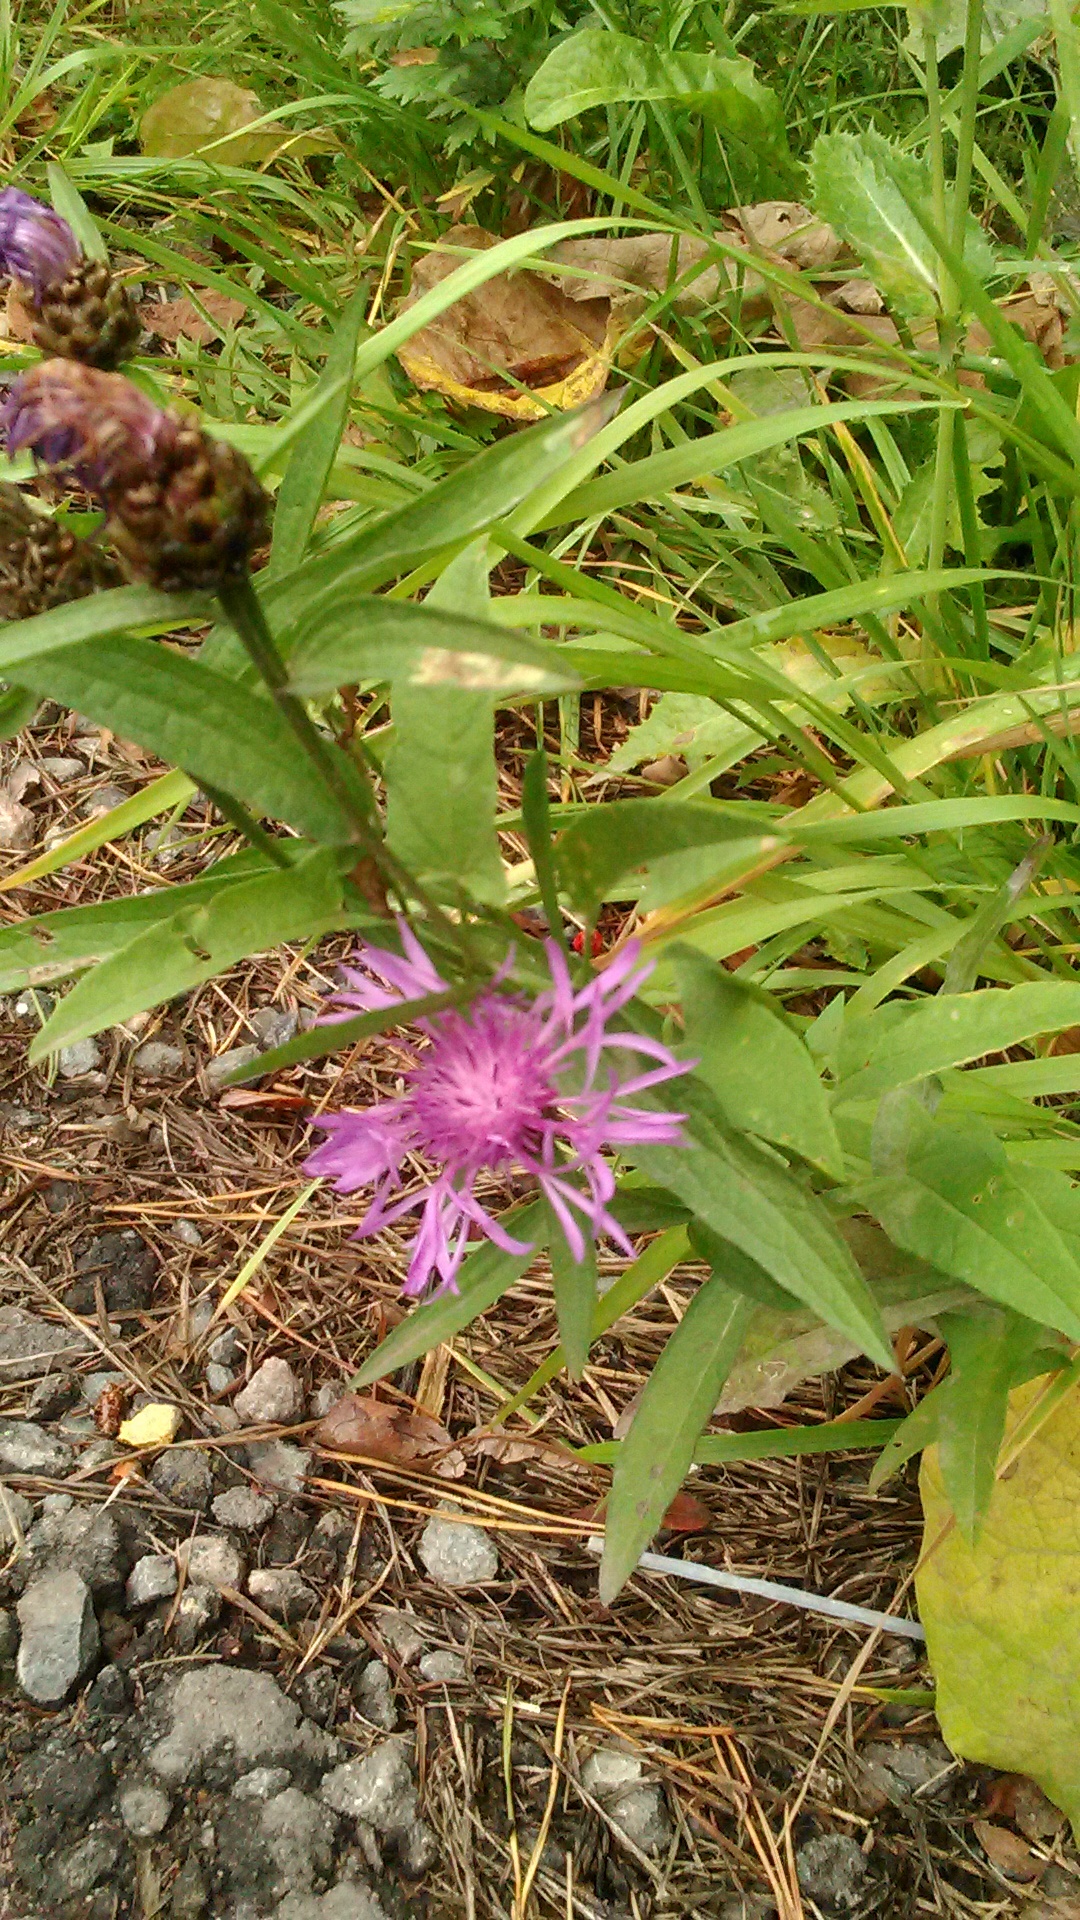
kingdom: Plantae
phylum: Tracheophyta
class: Magnoliopsida
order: Asterales
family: Asteraceae
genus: Centaurea
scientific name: Centaurea jacea
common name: Brown knapweed
